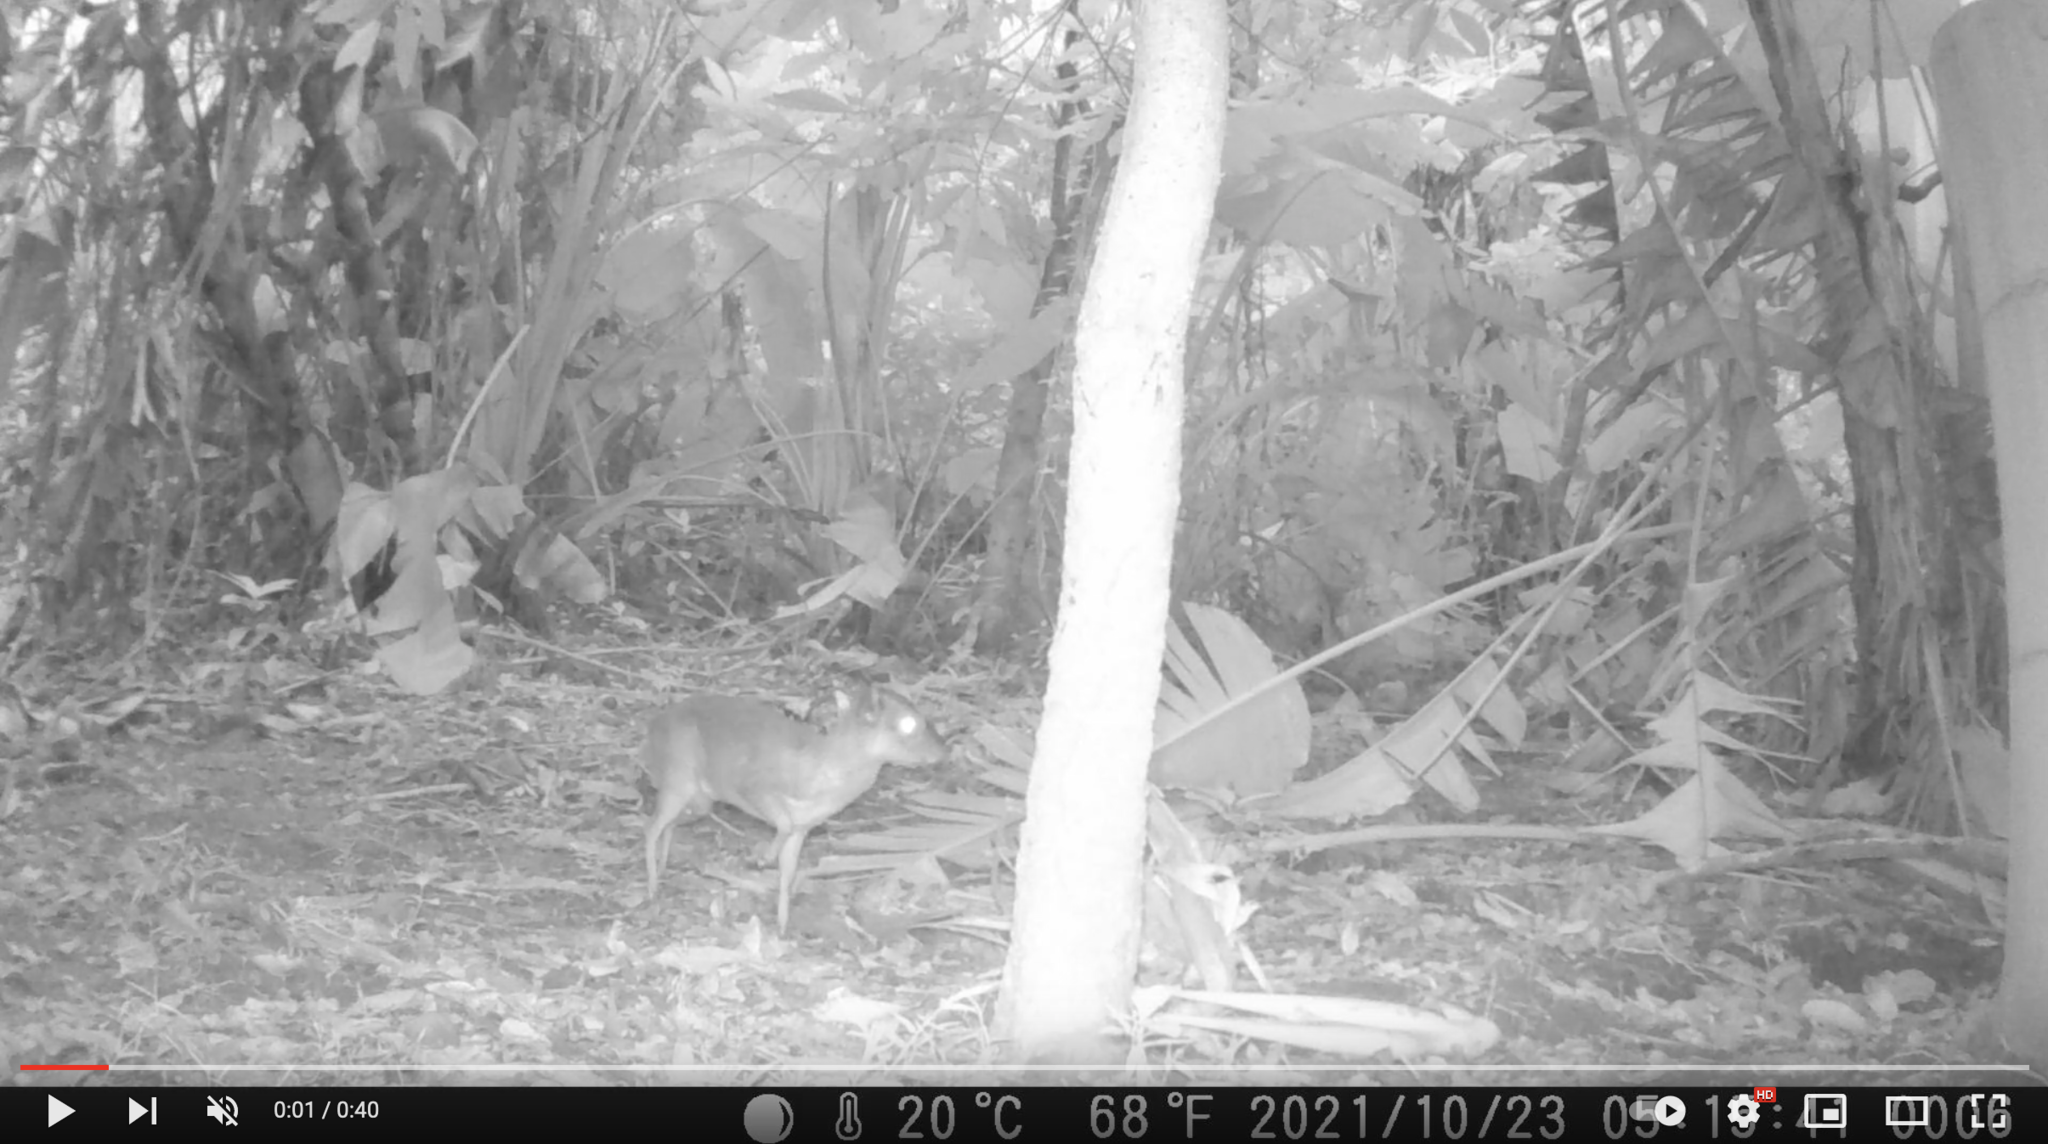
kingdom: Animalia
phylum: Chordata
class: Mammalia
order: Artiodactyla
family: Bovidae
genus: Philantomba
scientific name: Philantomba monticola
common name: Blue duiker
